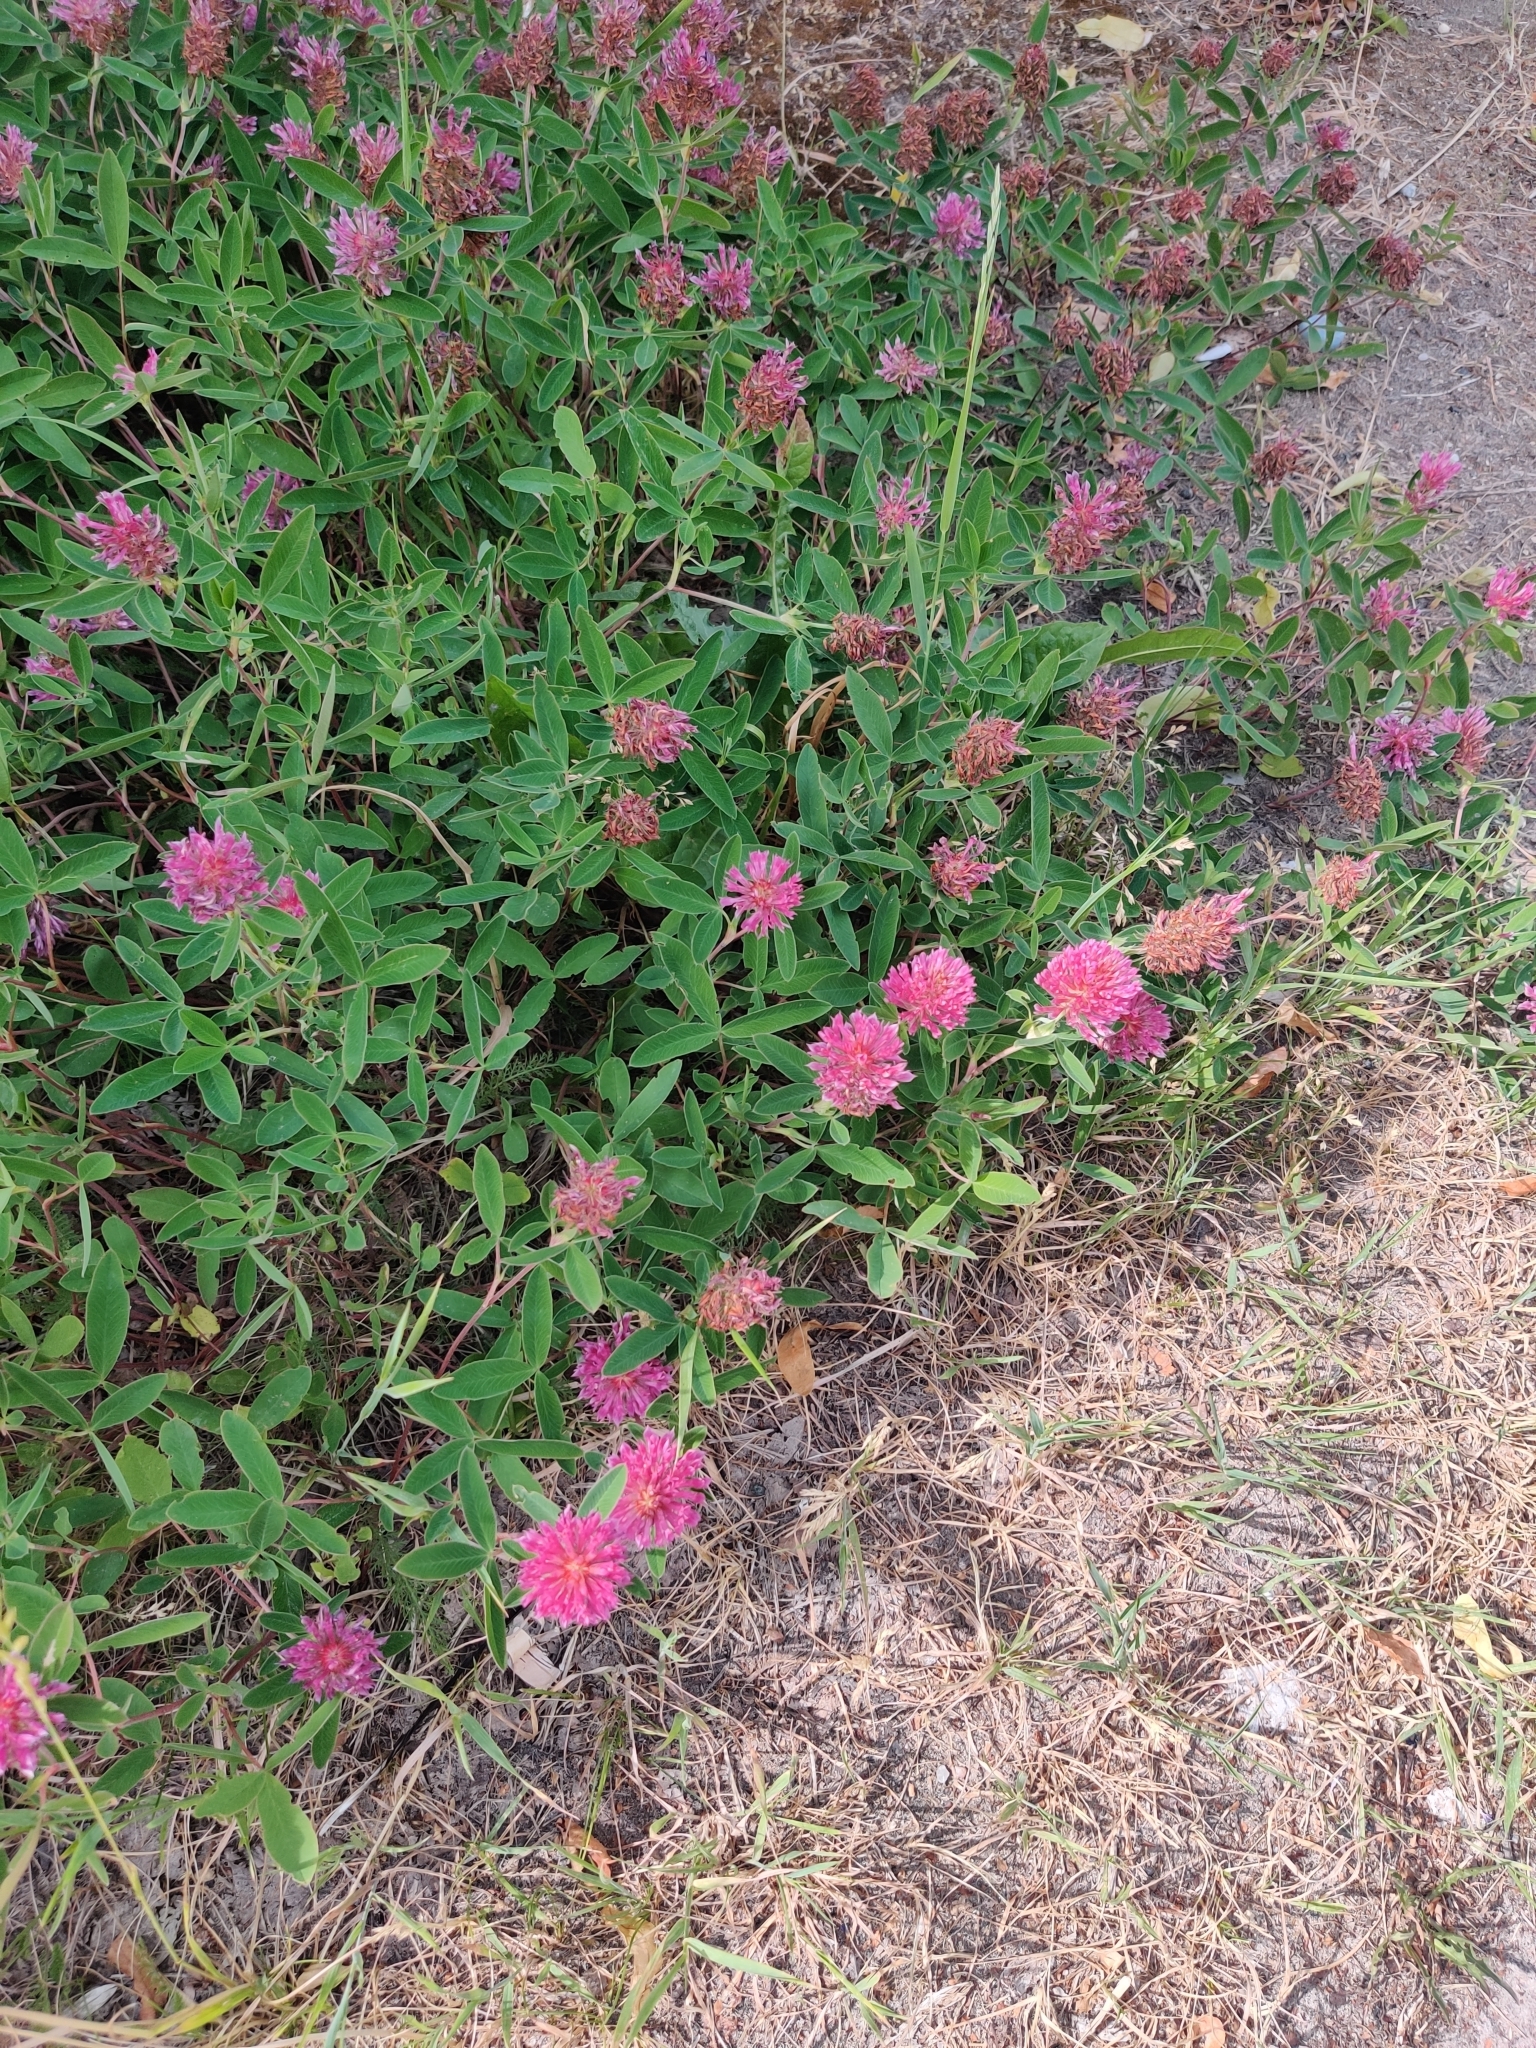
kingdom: Plantae
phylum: Tracheophyta
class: Magnoliopsida
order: Fabales
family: Fabaceae
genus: Trifolium
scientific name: Trifolium medium
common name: Zigzag clover
